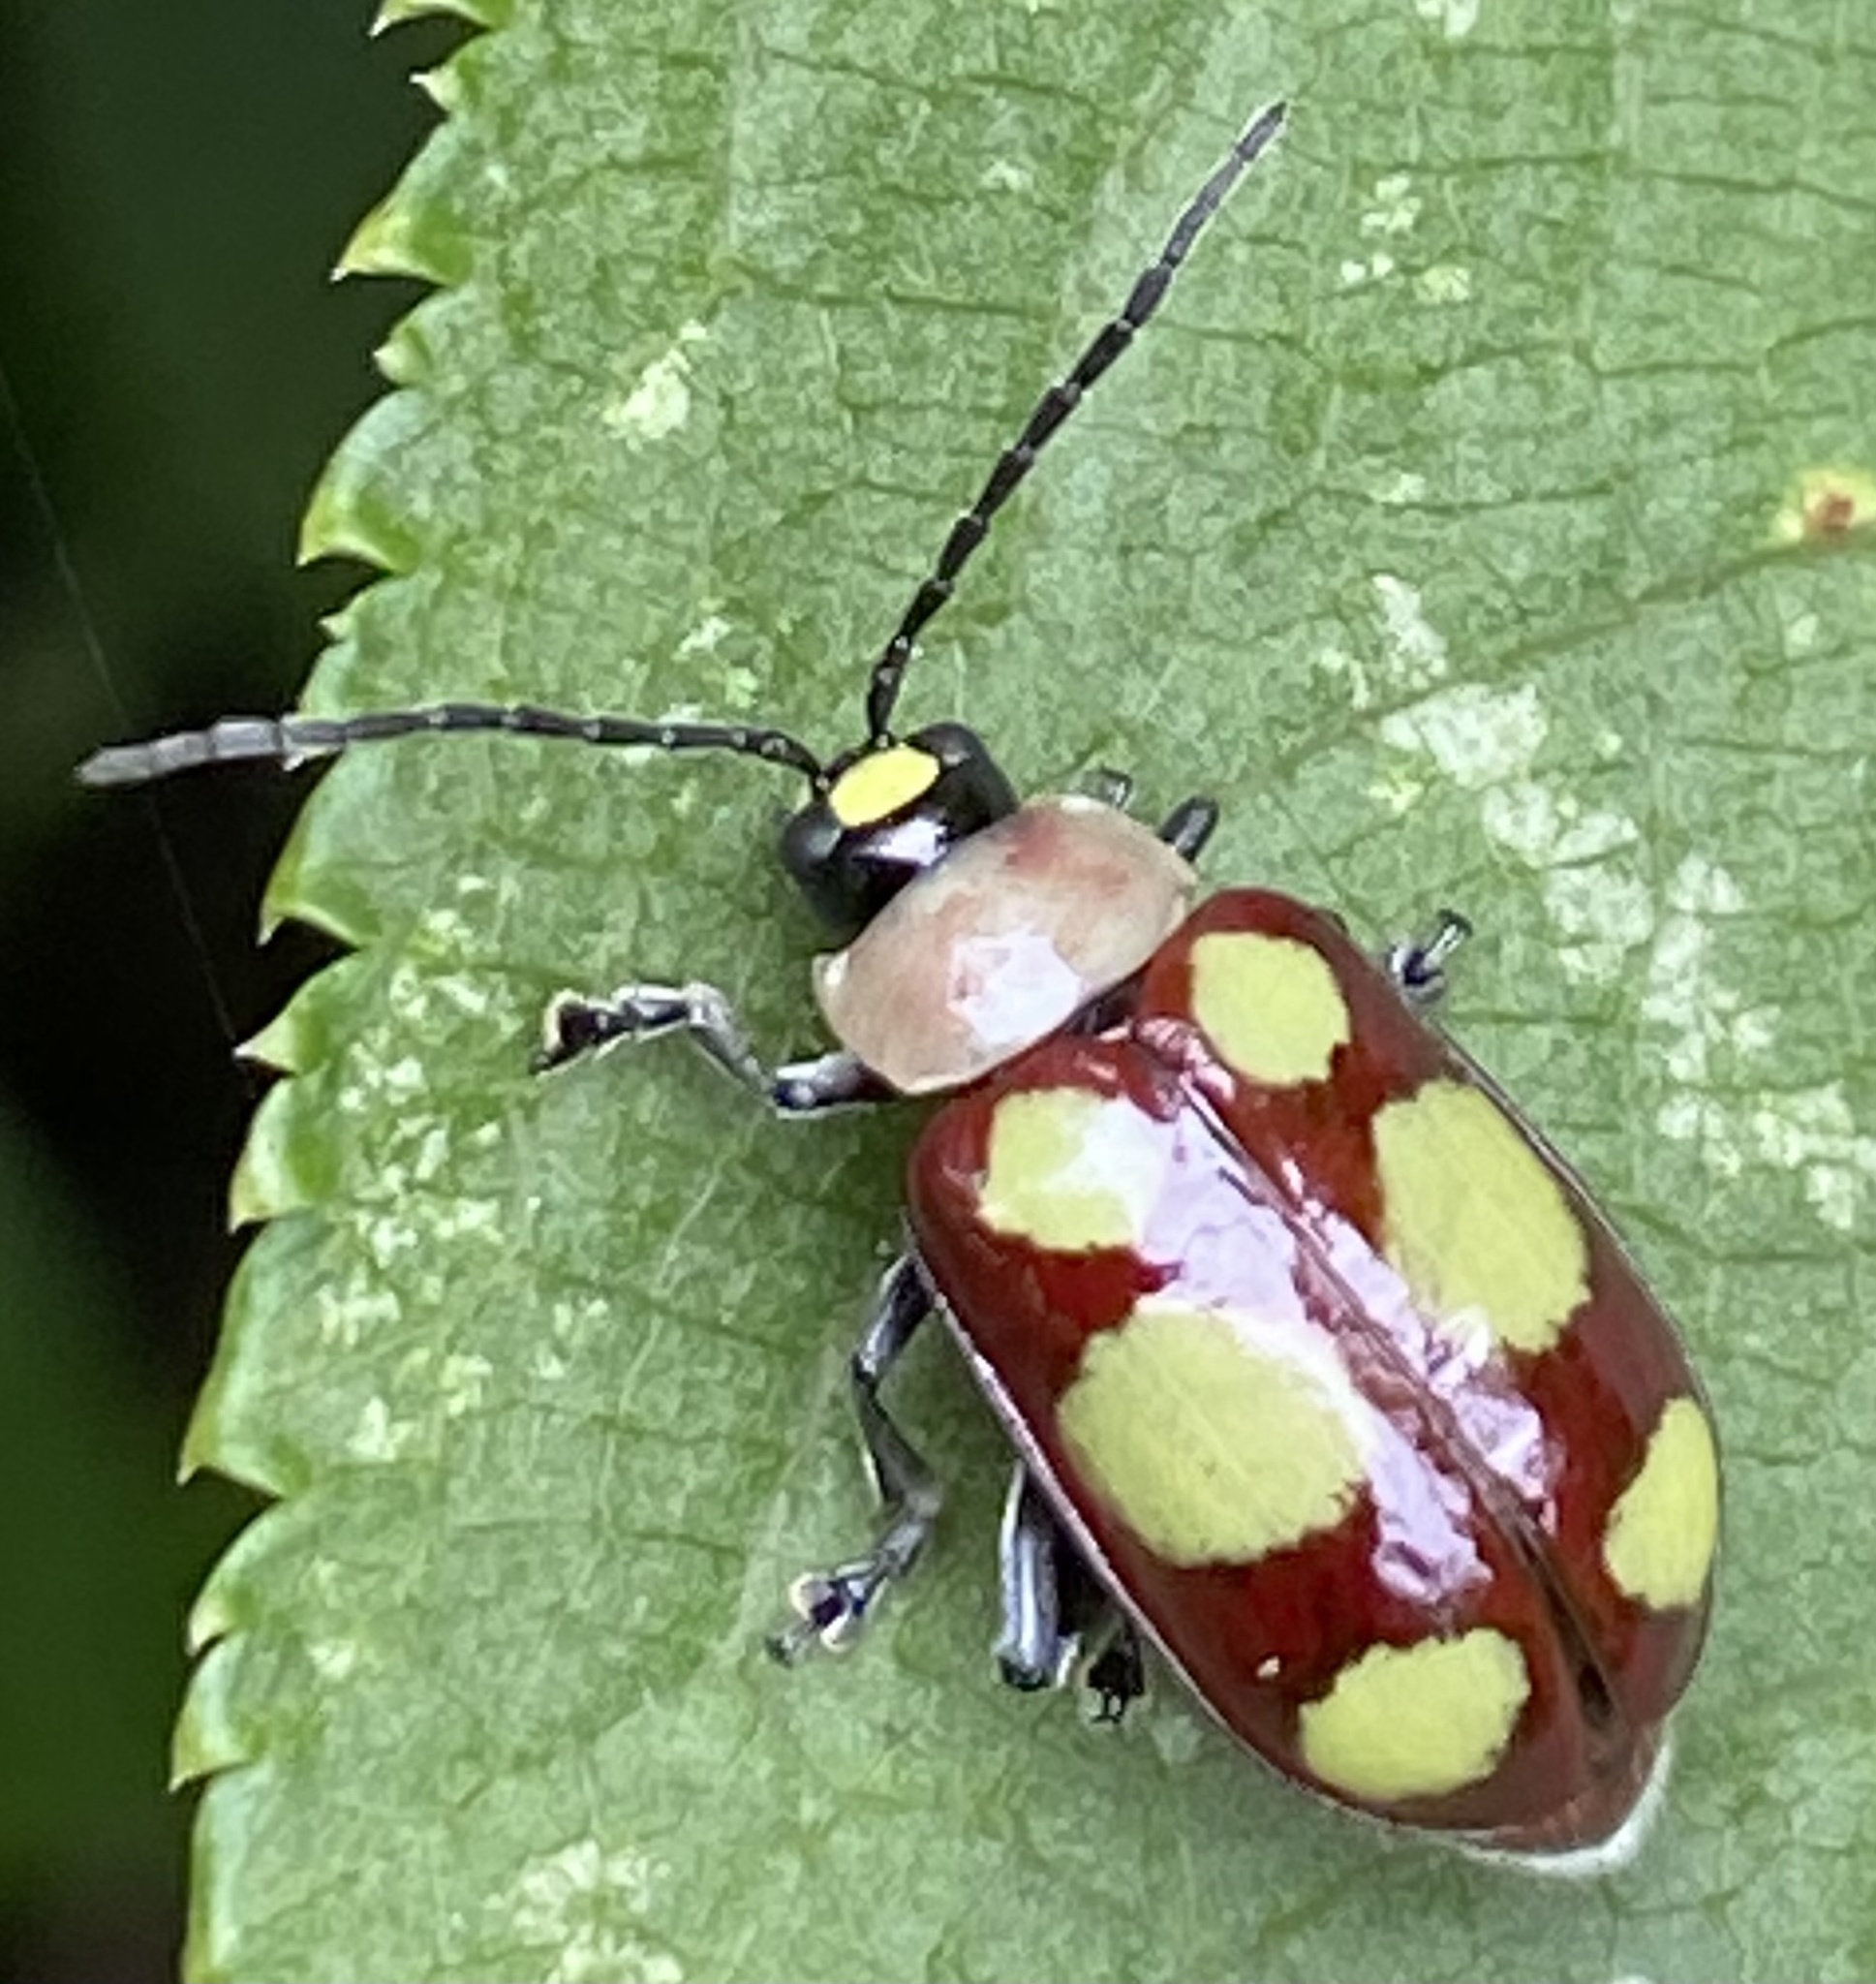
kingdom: Animalia
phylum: Arthropoda
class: Insecta
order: Coleoptera
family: Chrysomelidae
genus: Omophoita
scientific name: Omophoita
